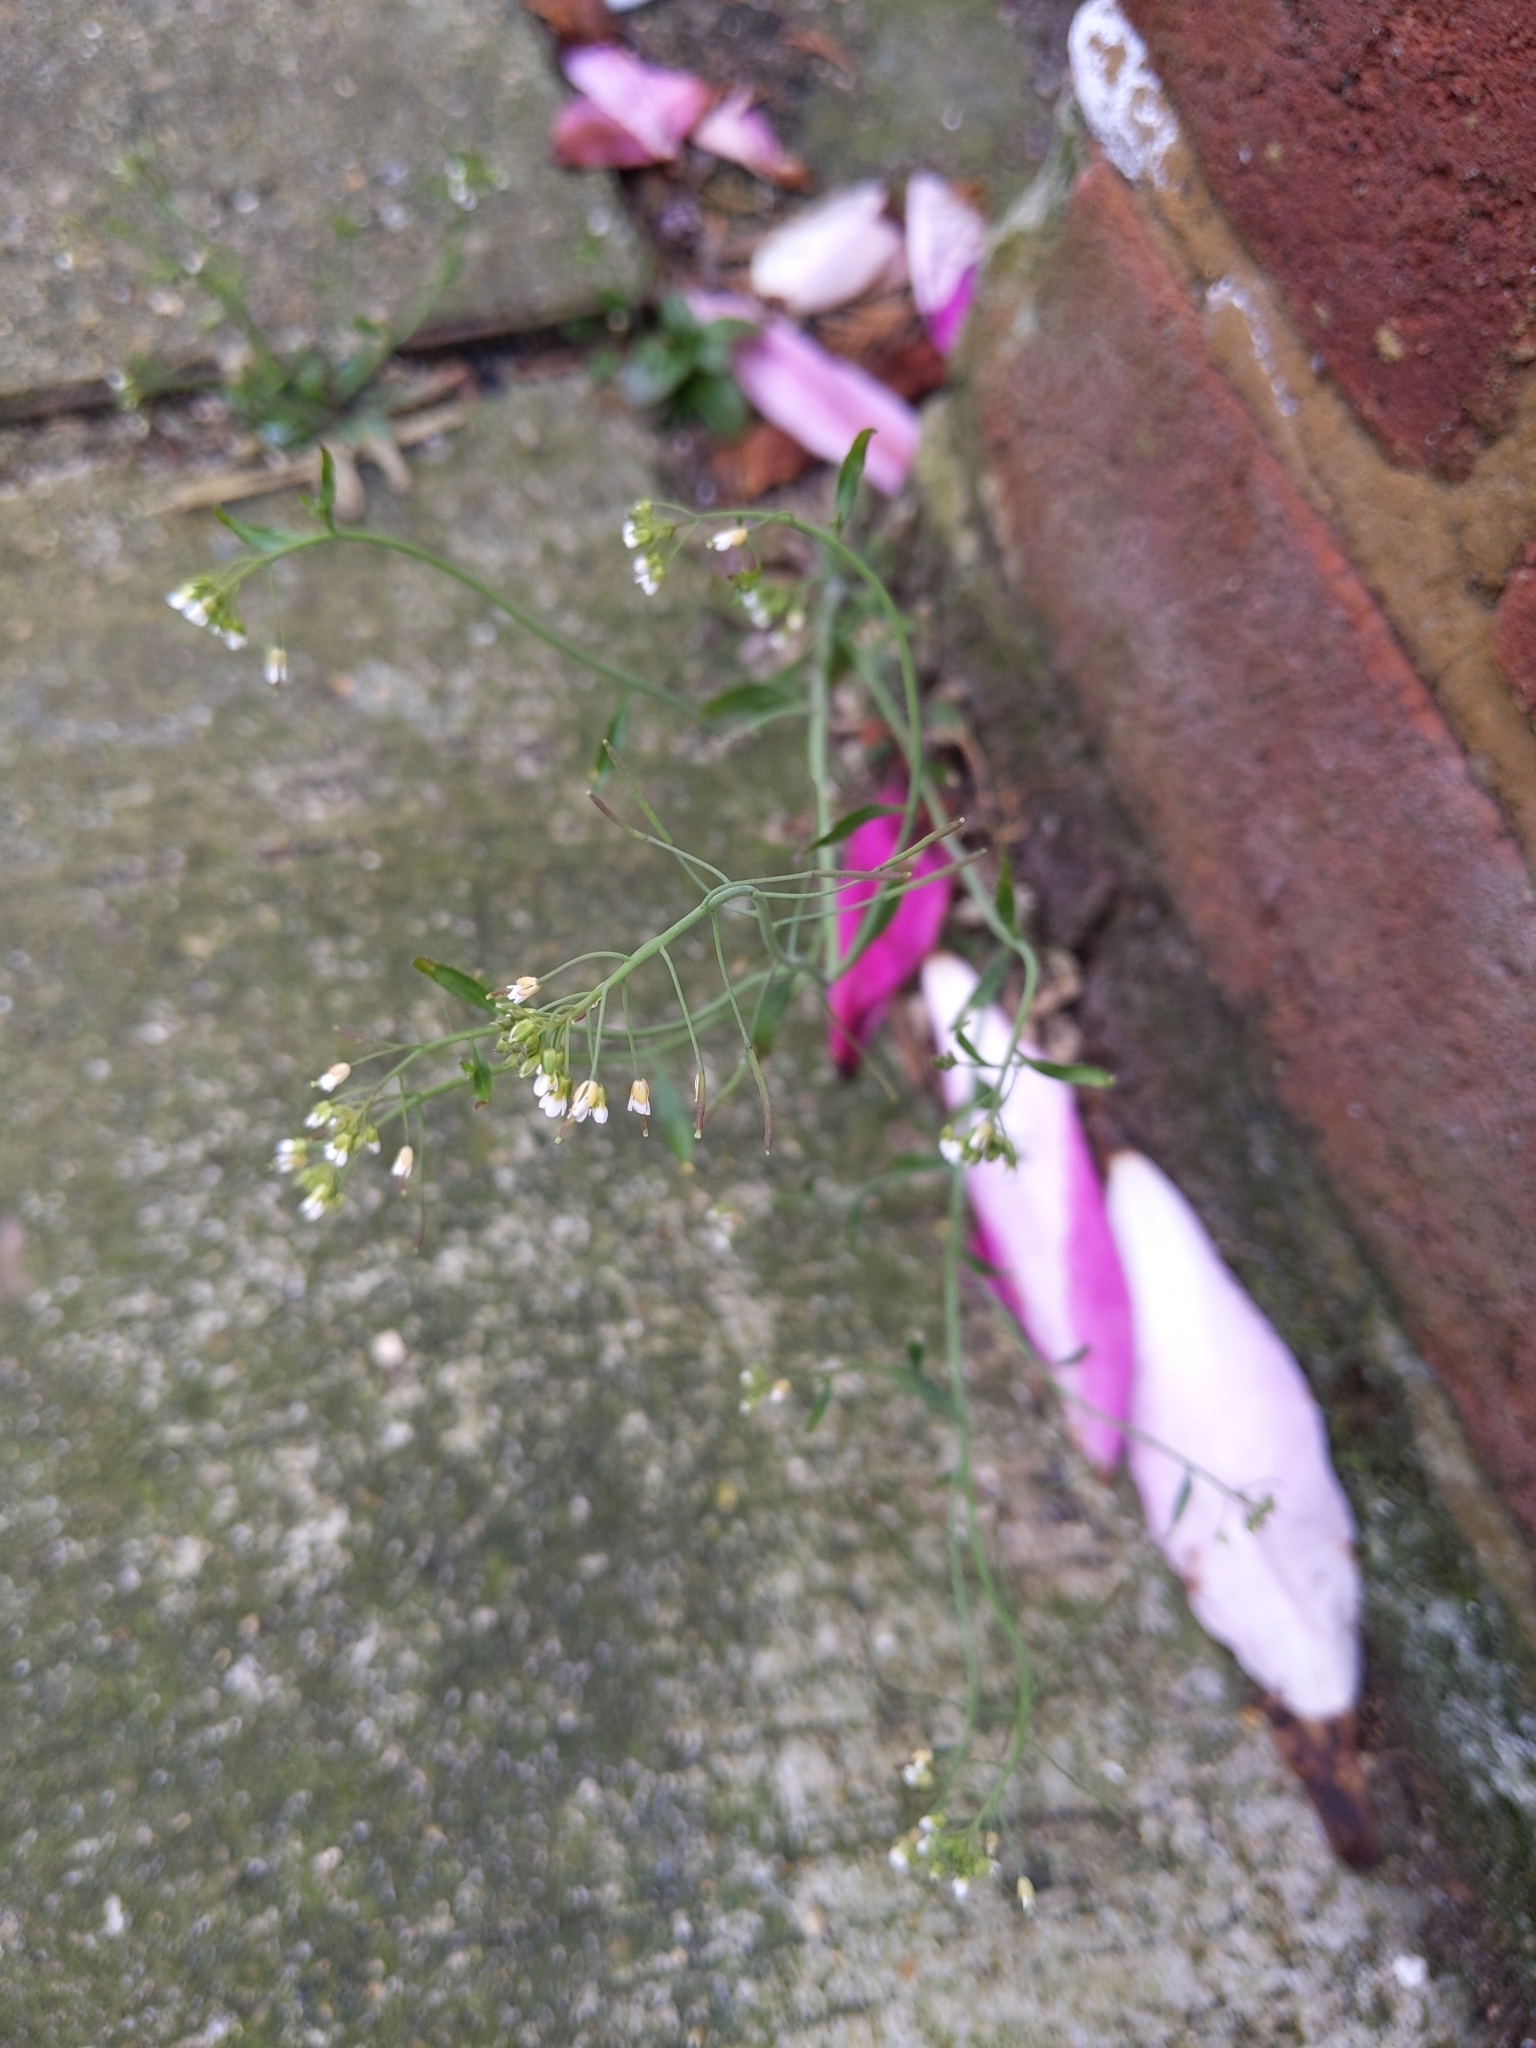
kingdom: Plantae
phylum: Tracheophyta
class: Magnoliopsida
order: Brassicales
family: Brassicaceae
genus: Arabidopsis
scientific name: Arabidopsis thaliana
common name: Thale cress
